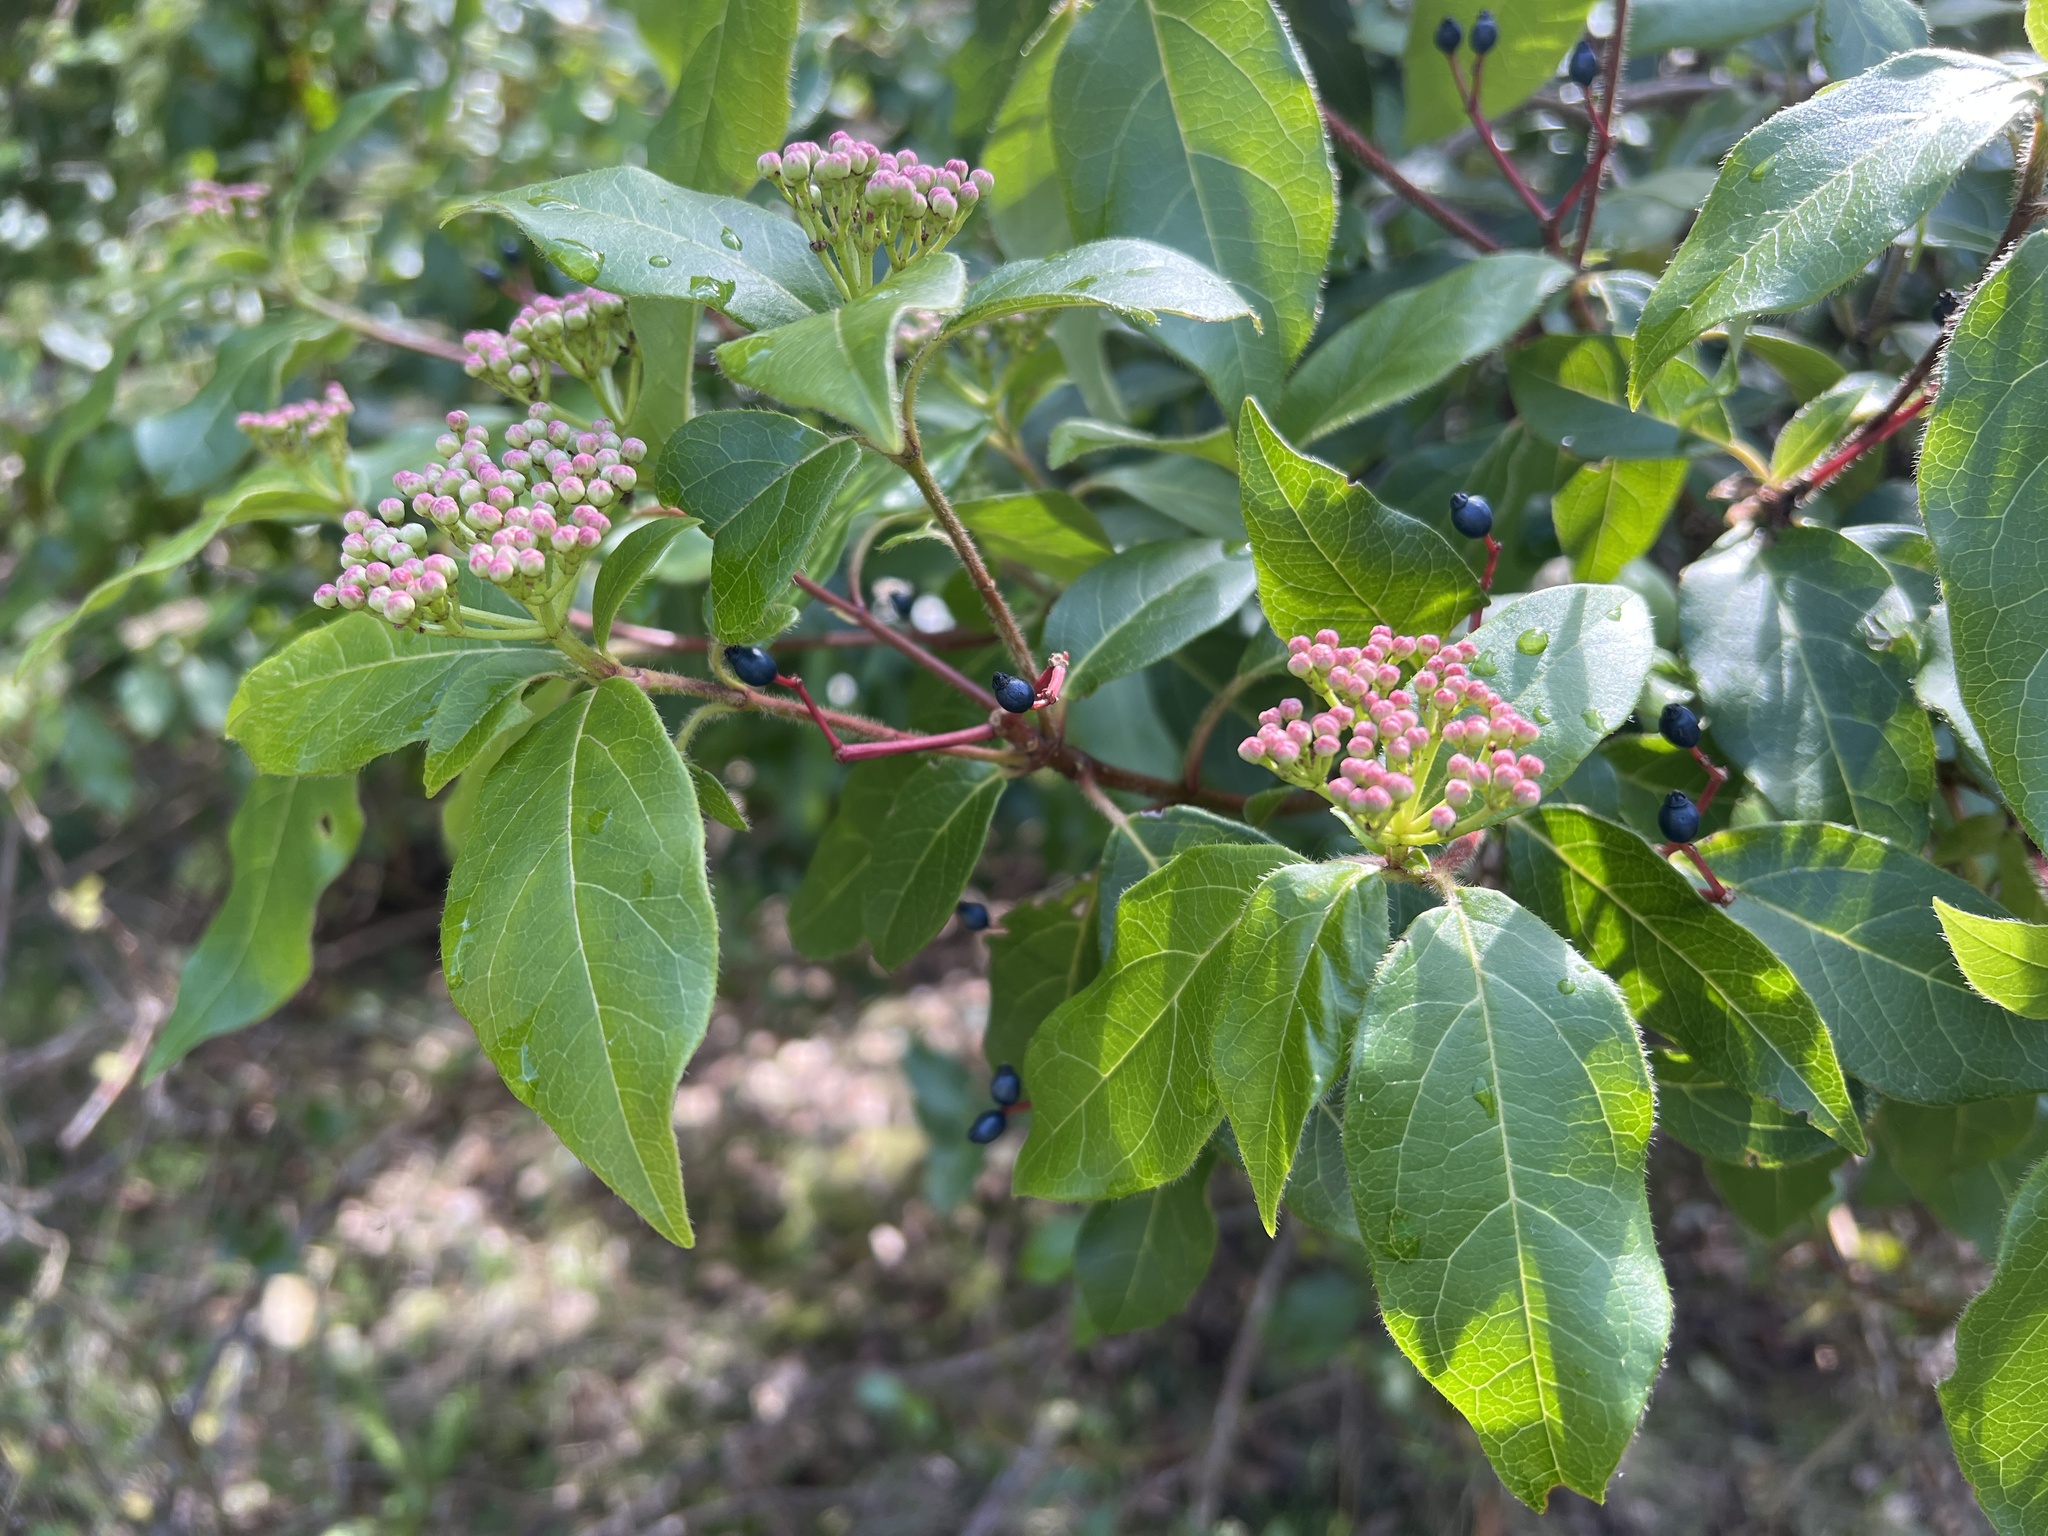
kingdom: Plantae
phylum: Tracheophyta
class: Magnoliopsida
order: Dipsacales
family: Viburnaceae
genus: Viburnum
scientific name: Viburnum tinus
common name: Laurustinus
